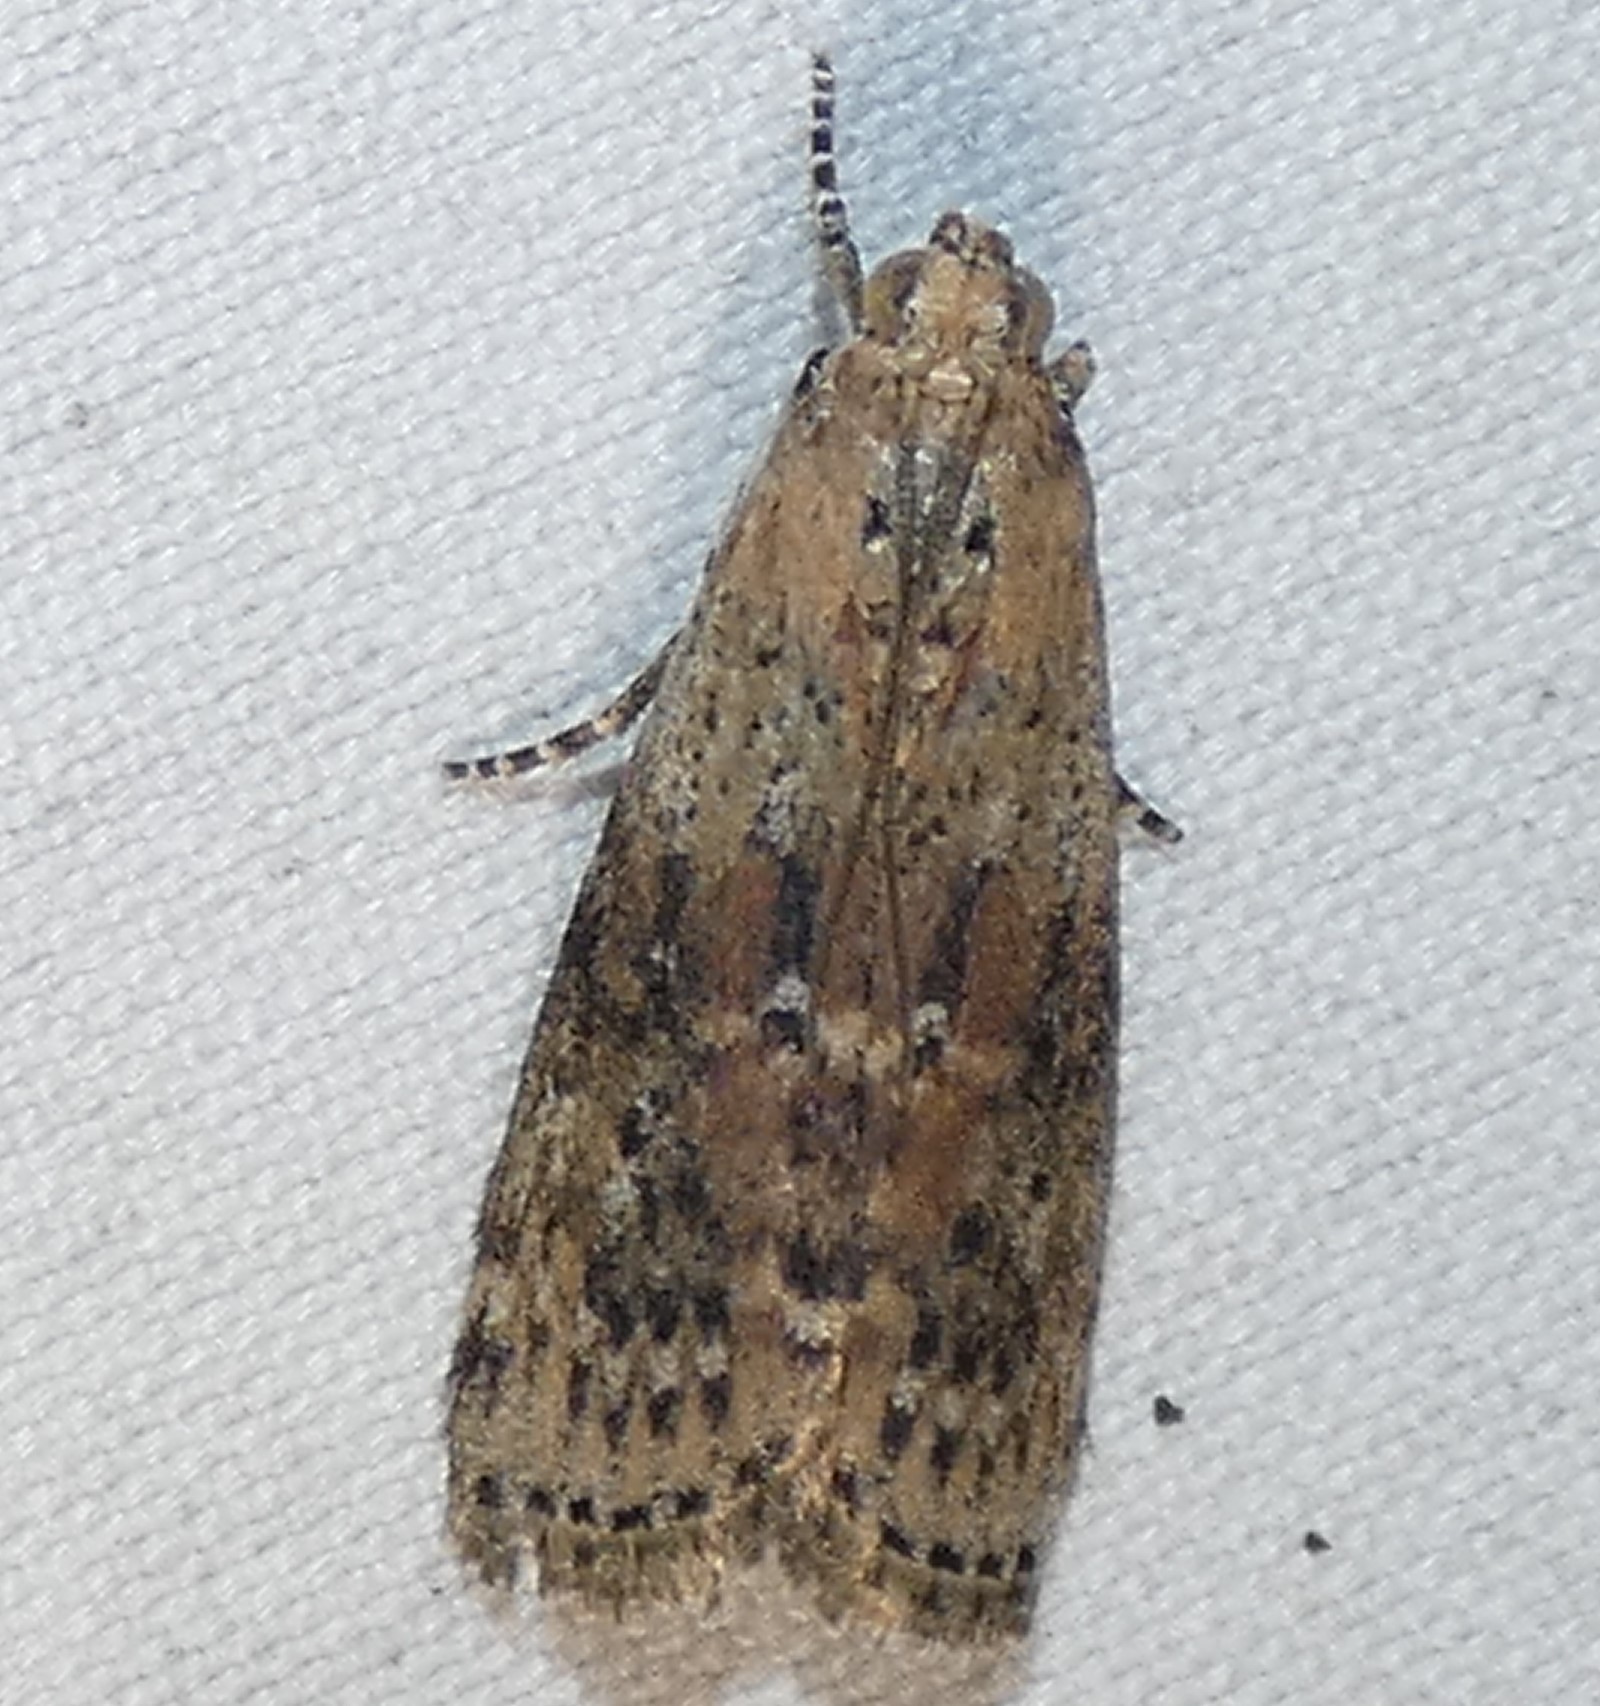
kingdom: Animalia
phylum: Arthropoda
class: Insecta
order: Lepidoptera
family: Pyralidae
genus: Sciota
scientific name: Sciota celtidella
